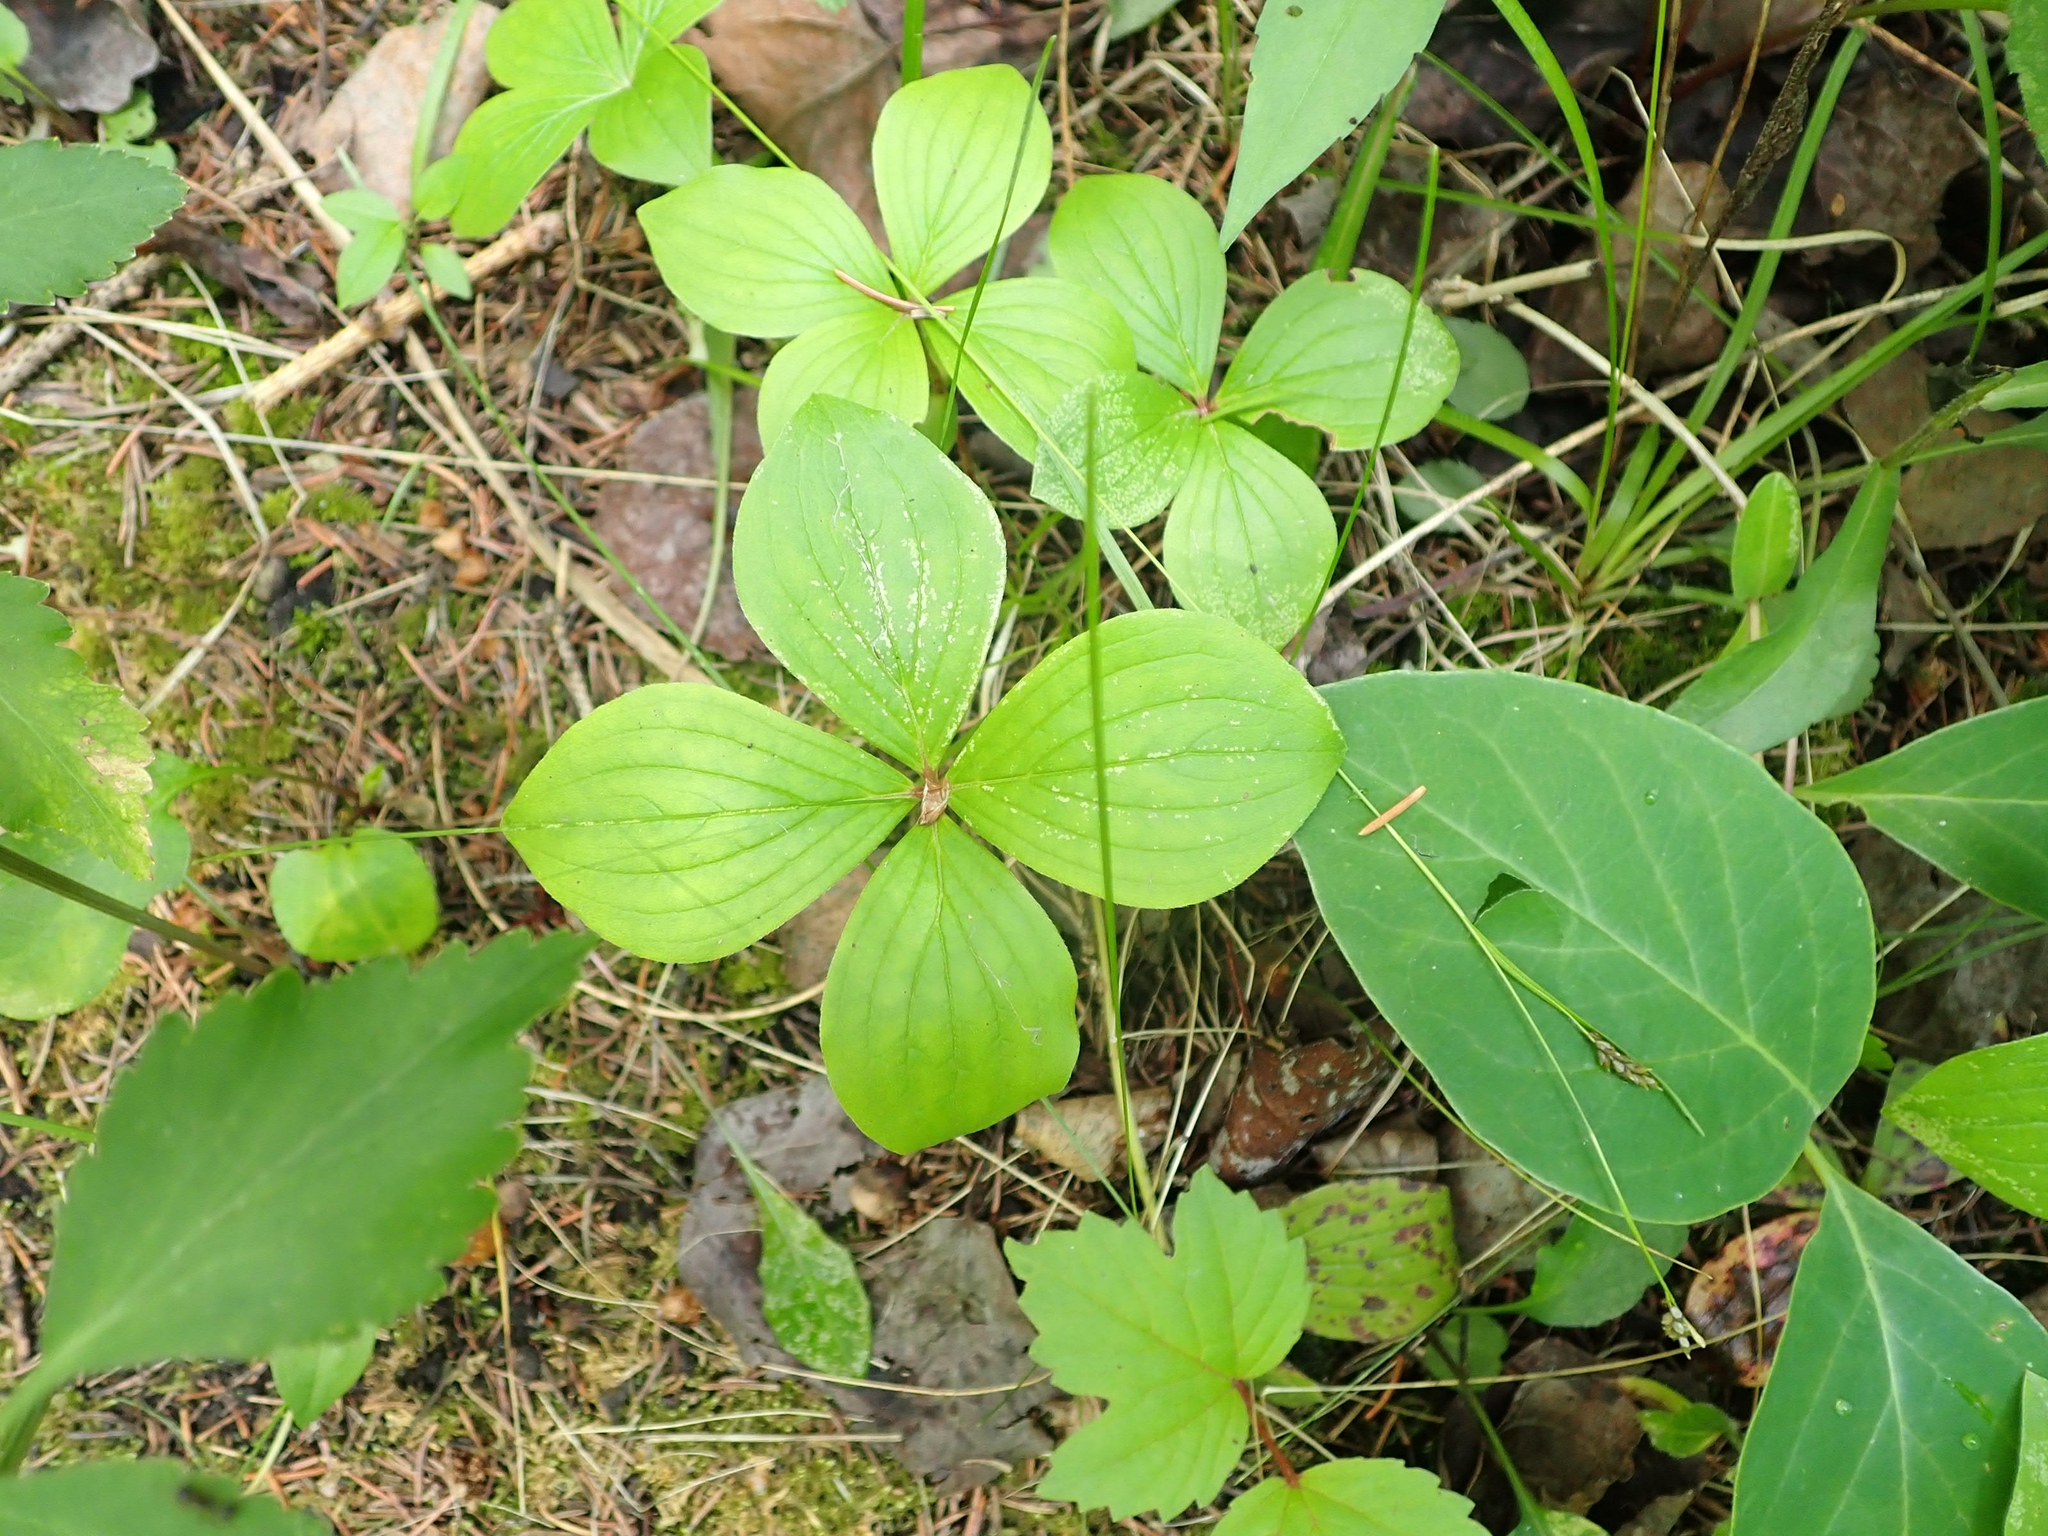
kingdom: Plantae
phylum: Tracheophyta
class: Magnoliopsida
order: Cornales
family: Cornaceae
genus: Cornus
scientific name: Cornus canadensis
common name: Creeping dogwood
